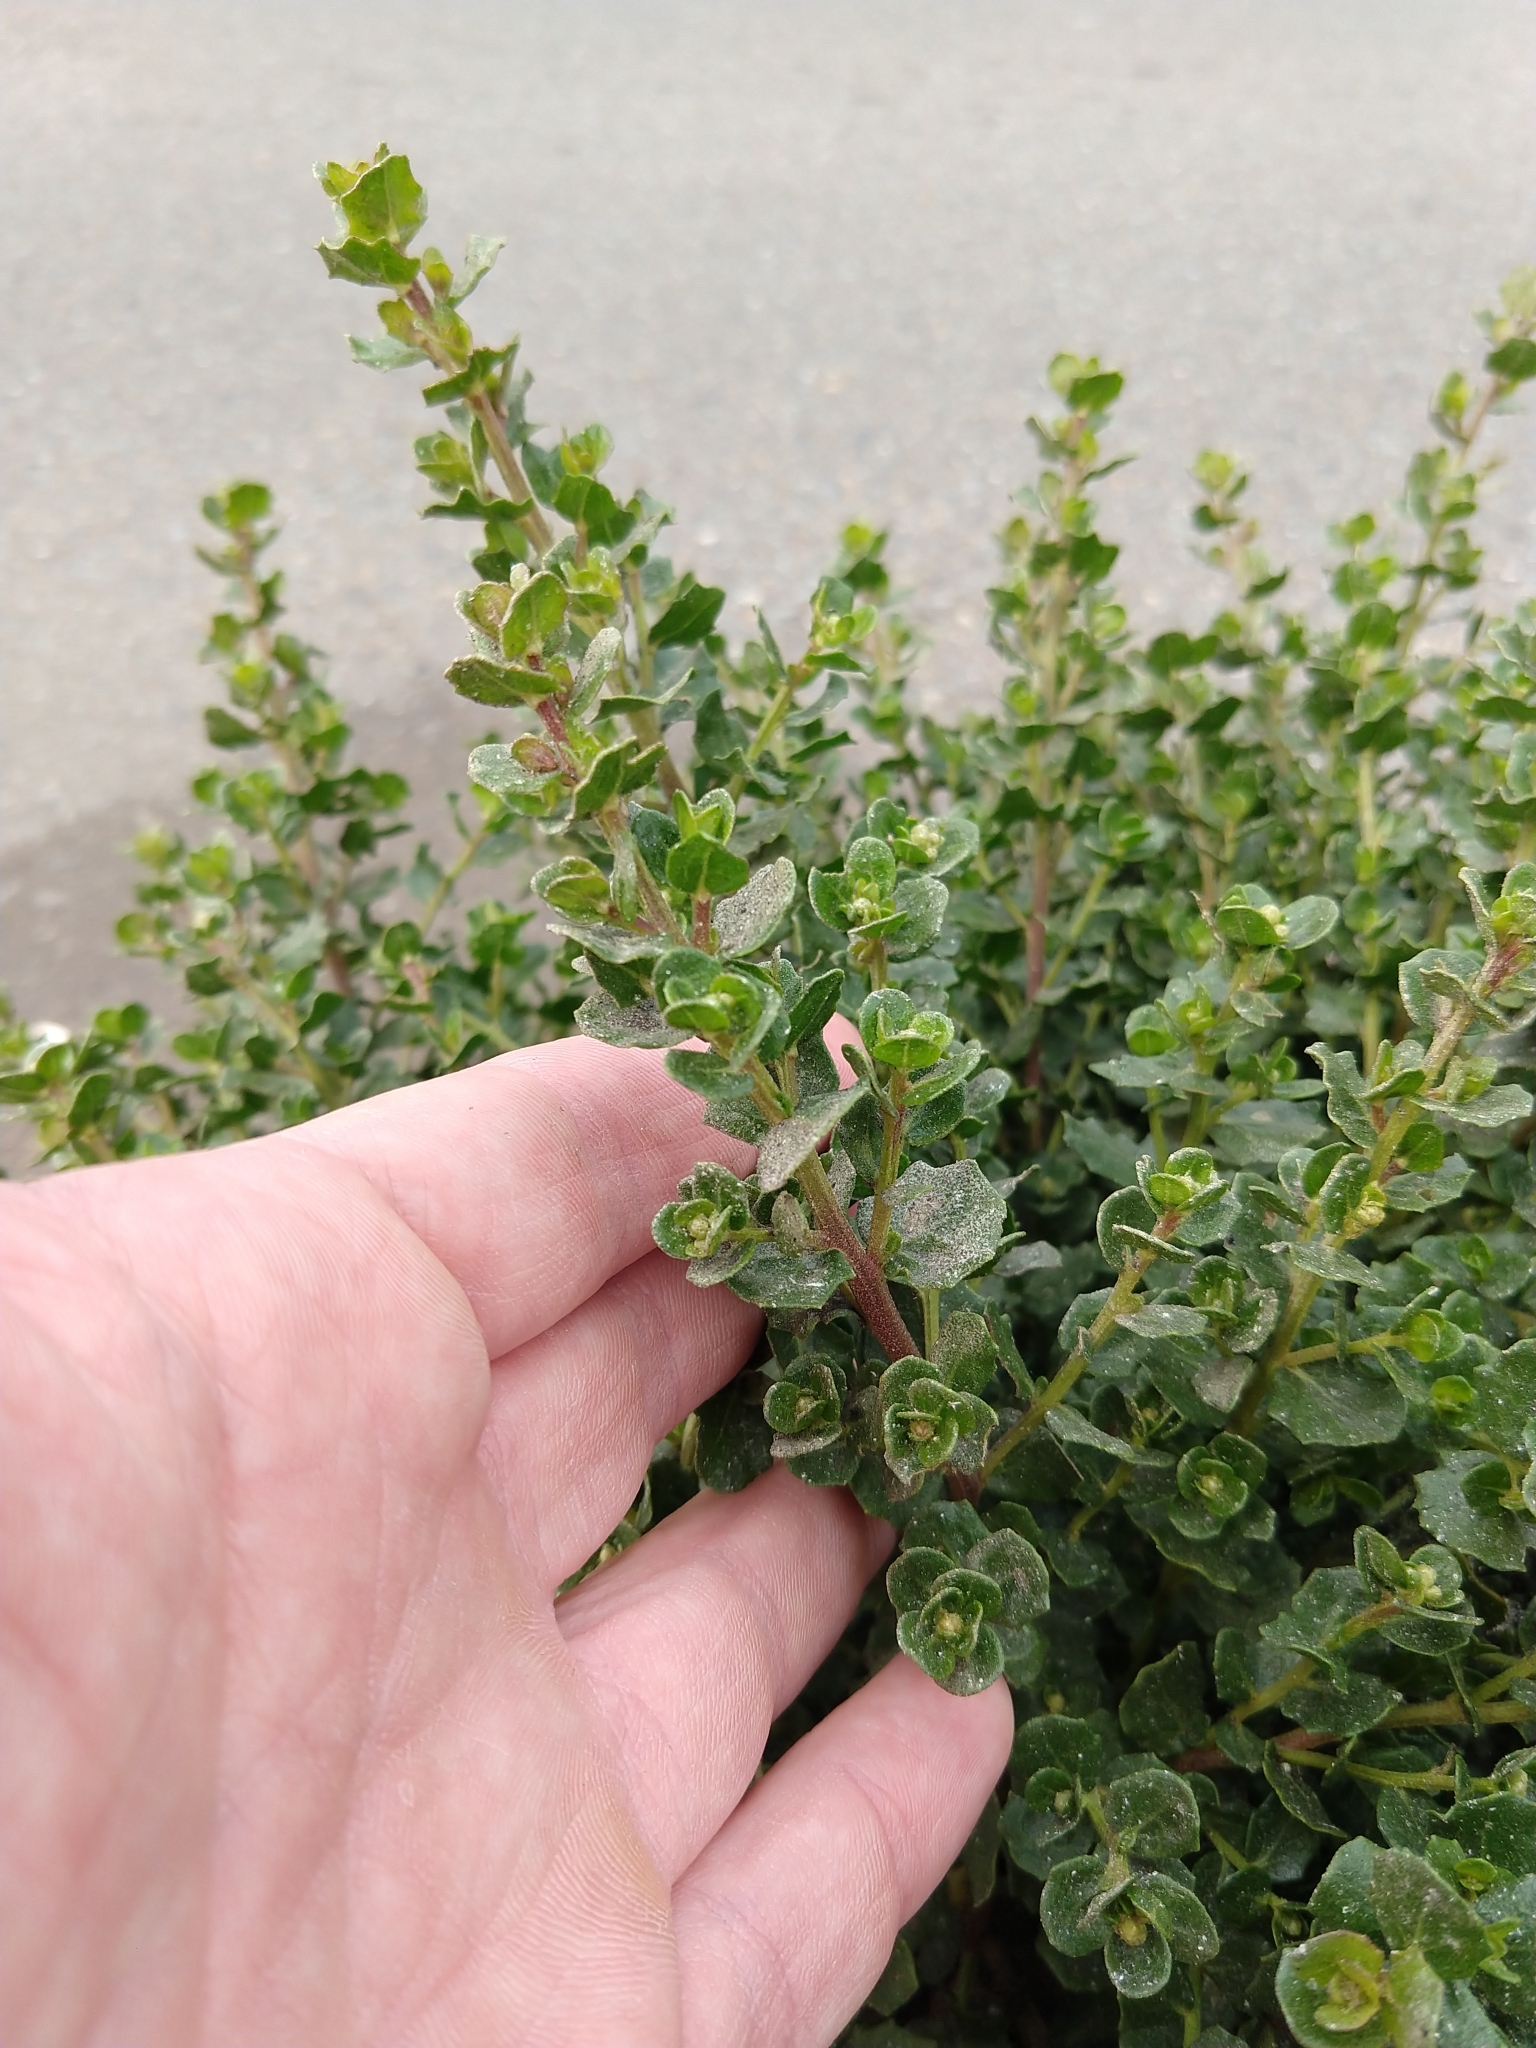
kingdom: Plantae
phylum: Tracheophyta
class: Magnoliopsida
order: Asterales
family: Asteraceae
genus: Baccharis
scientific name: Baccharis pilularis
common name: Coyotebrush
